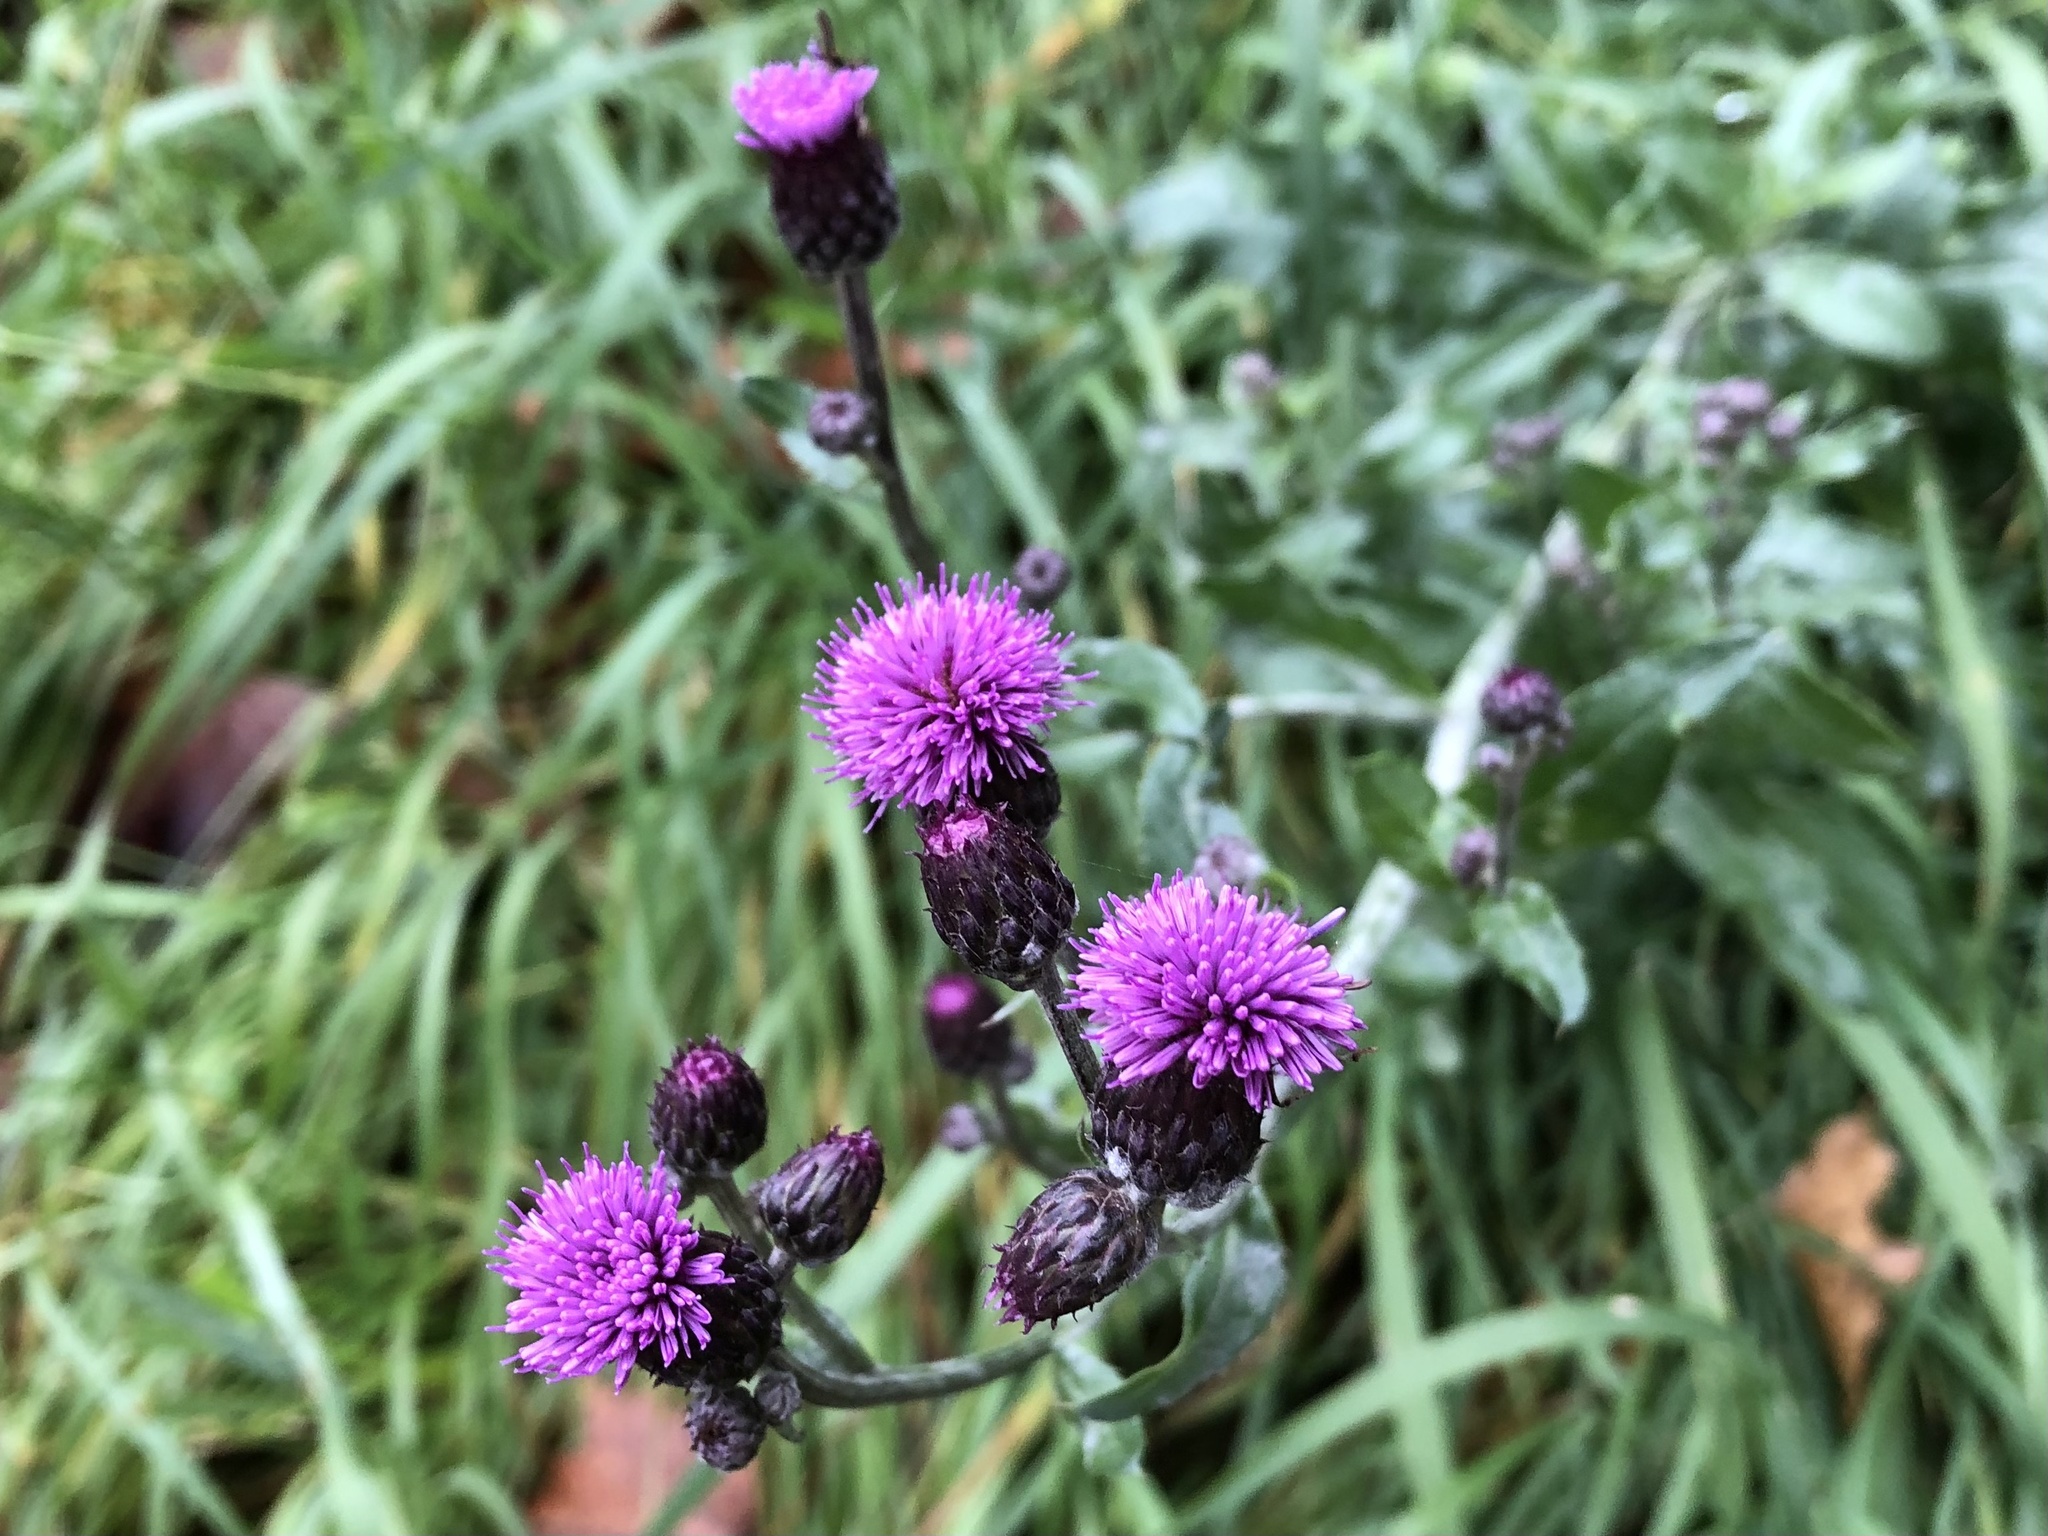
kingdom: Plantae
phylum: Tracheophyta
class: Magnoliopsida
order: Asterales
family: Asteraceae
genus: Cirsium
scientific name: Cirsium arvense
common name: Creeping thistle
